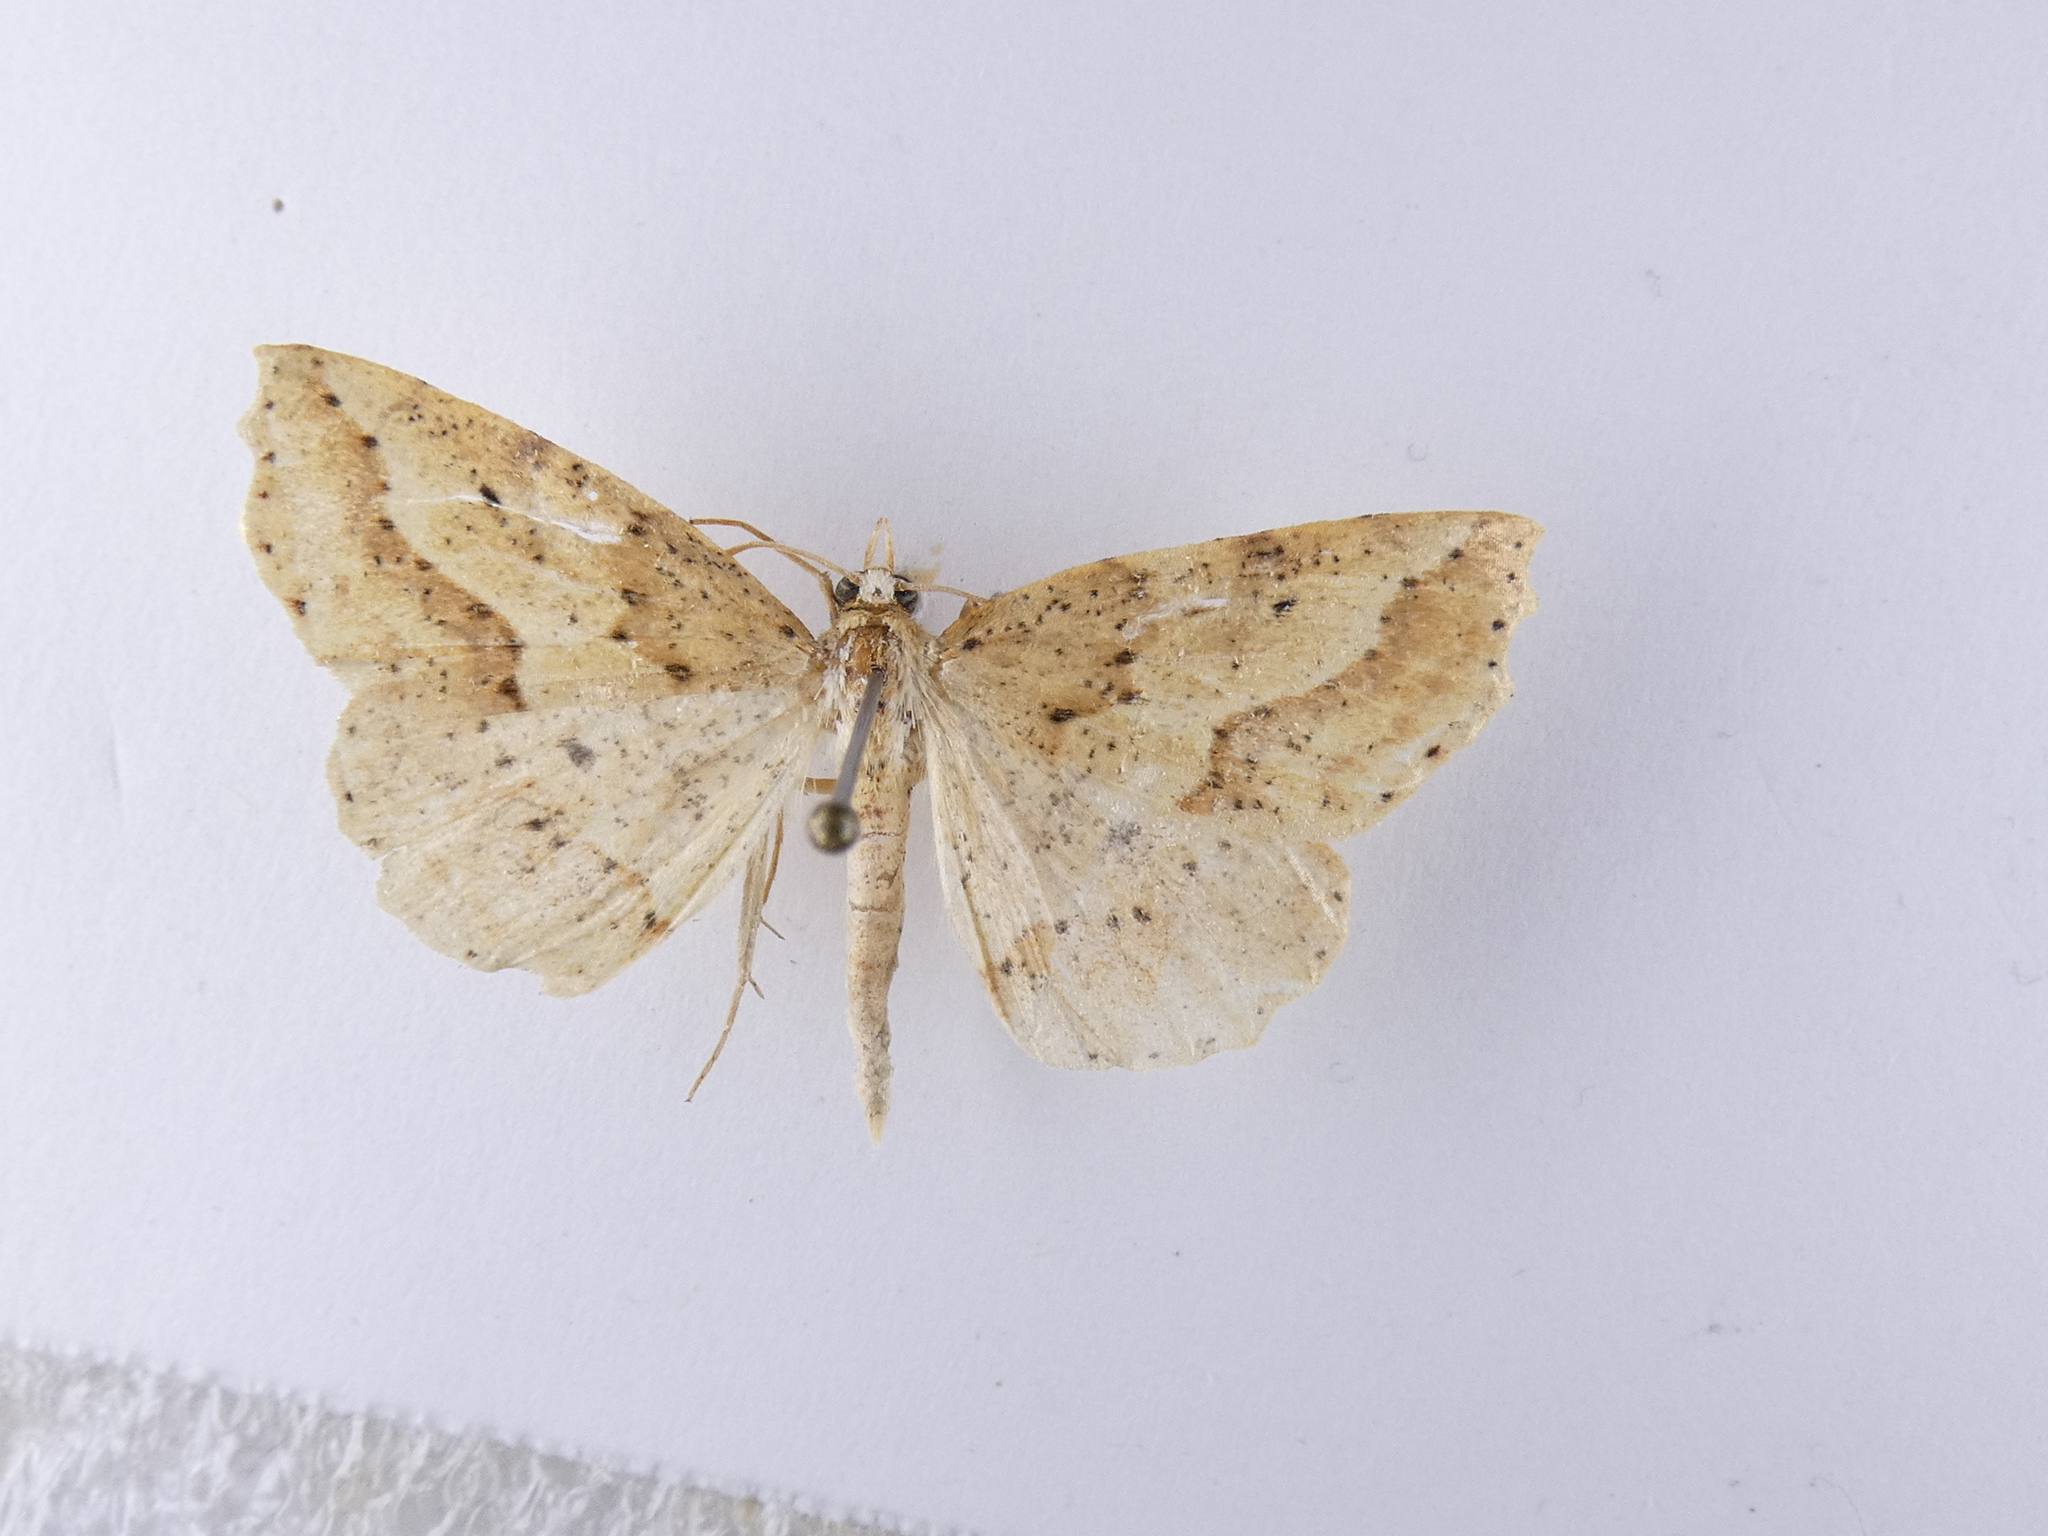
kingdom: Animalia
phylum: Arthropoda
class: Insecta
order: Lepidoptera
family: Geometridae
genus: Ischalis
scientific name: Ischalis variabilis
